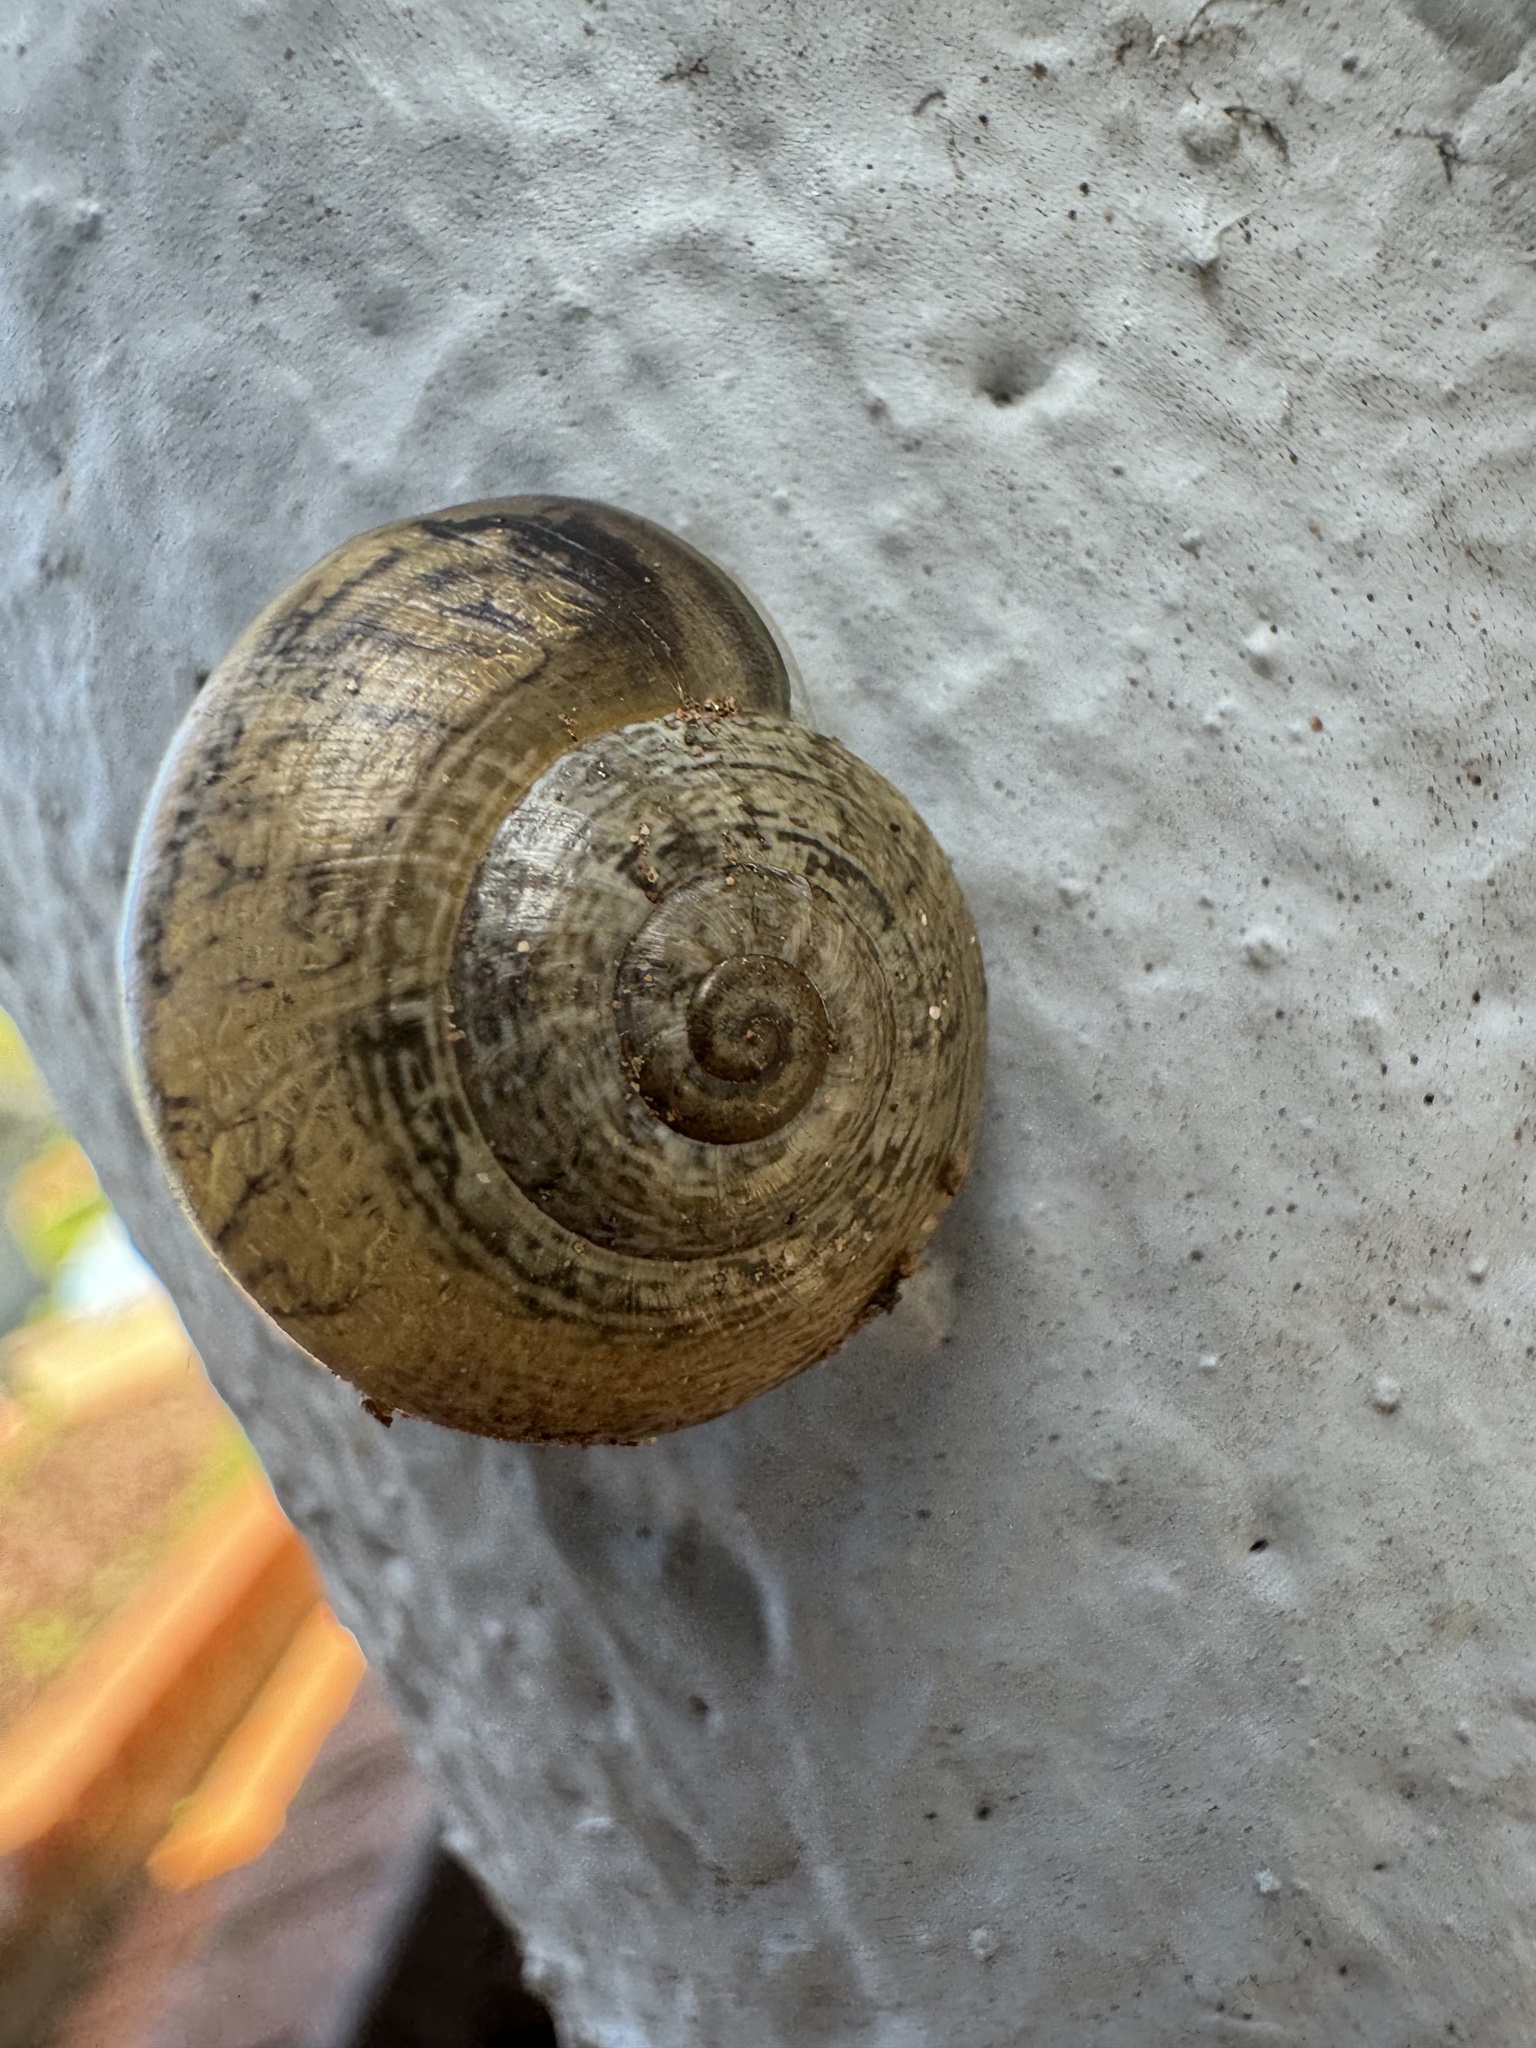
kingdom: Animalia
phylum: Mollusca
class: Gastropoda
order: Stylommatophora
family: Helicidae
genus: Otala
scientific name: Otala lactea
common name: Milk snail
